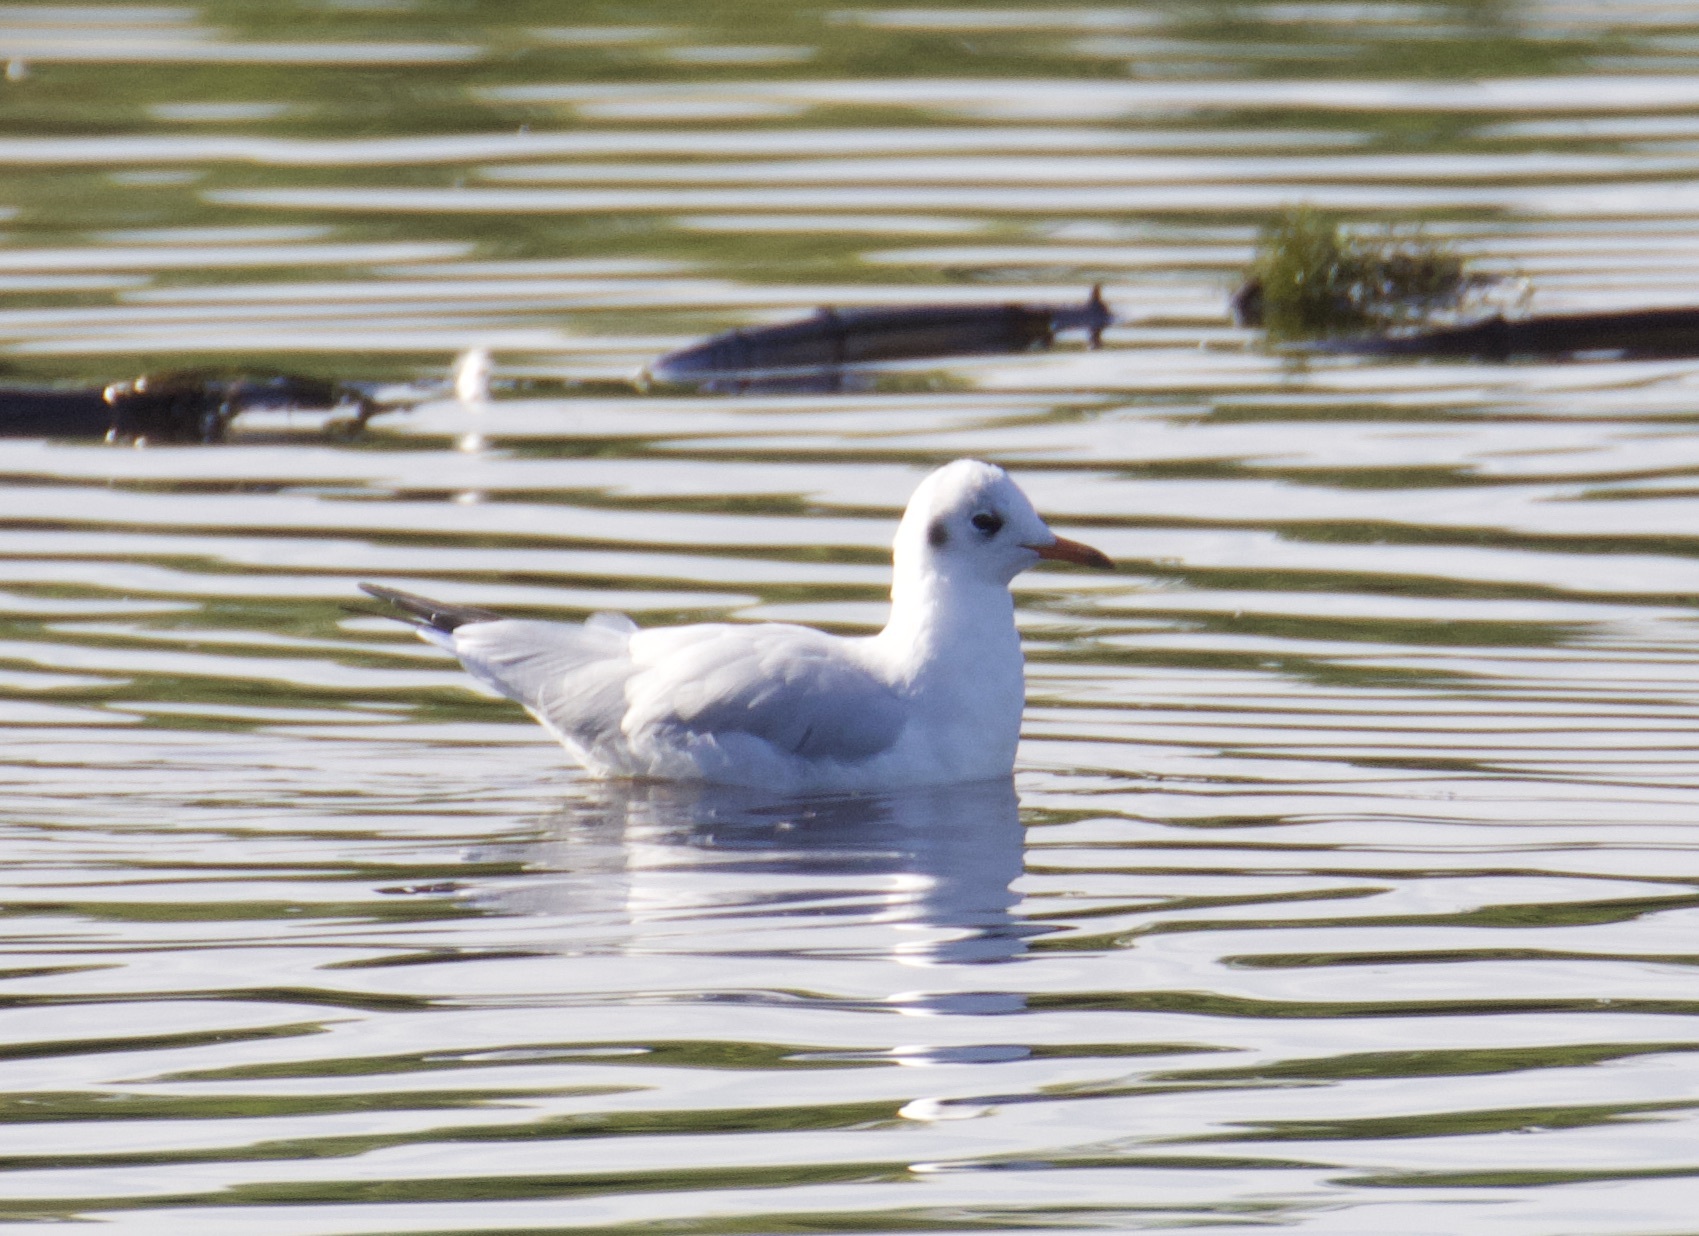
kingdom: Animalia
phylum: Chordata
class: Aves
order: Charadriiformes
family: Laridae
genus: Chroicocephalus
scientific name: Chroicocephalus ridibundus
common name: Black-headed gull
